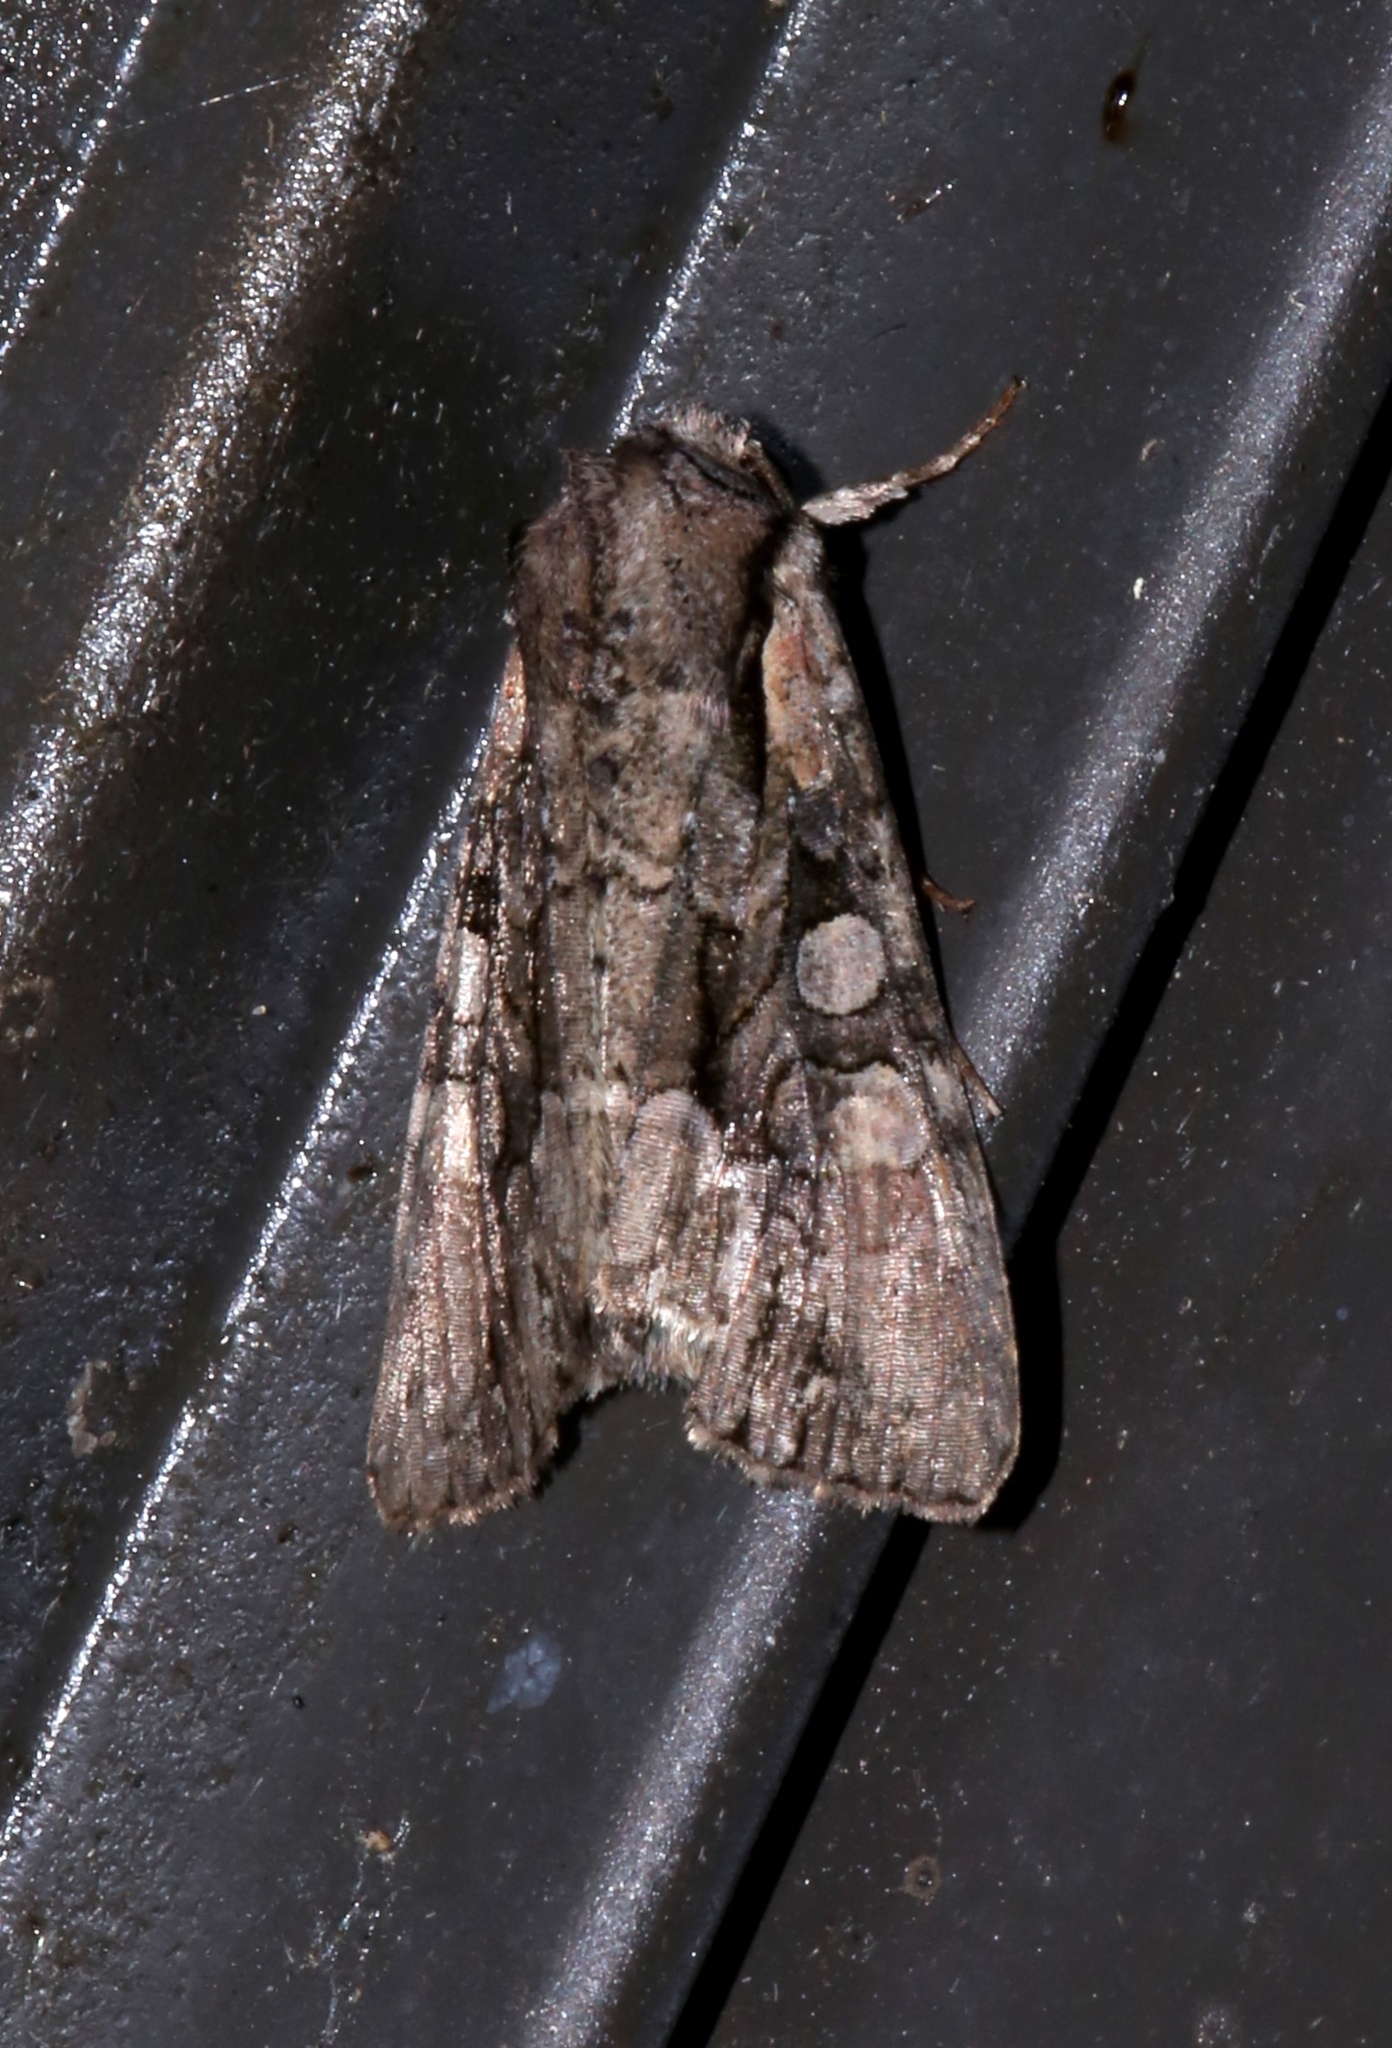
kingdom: Animalia
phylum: Arthropoda
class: Insecta
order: Lepidoptera
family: Noctuidae
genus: Lacanobia
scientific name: Lacanobia subjuncta
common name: Speckled cutworm moth
